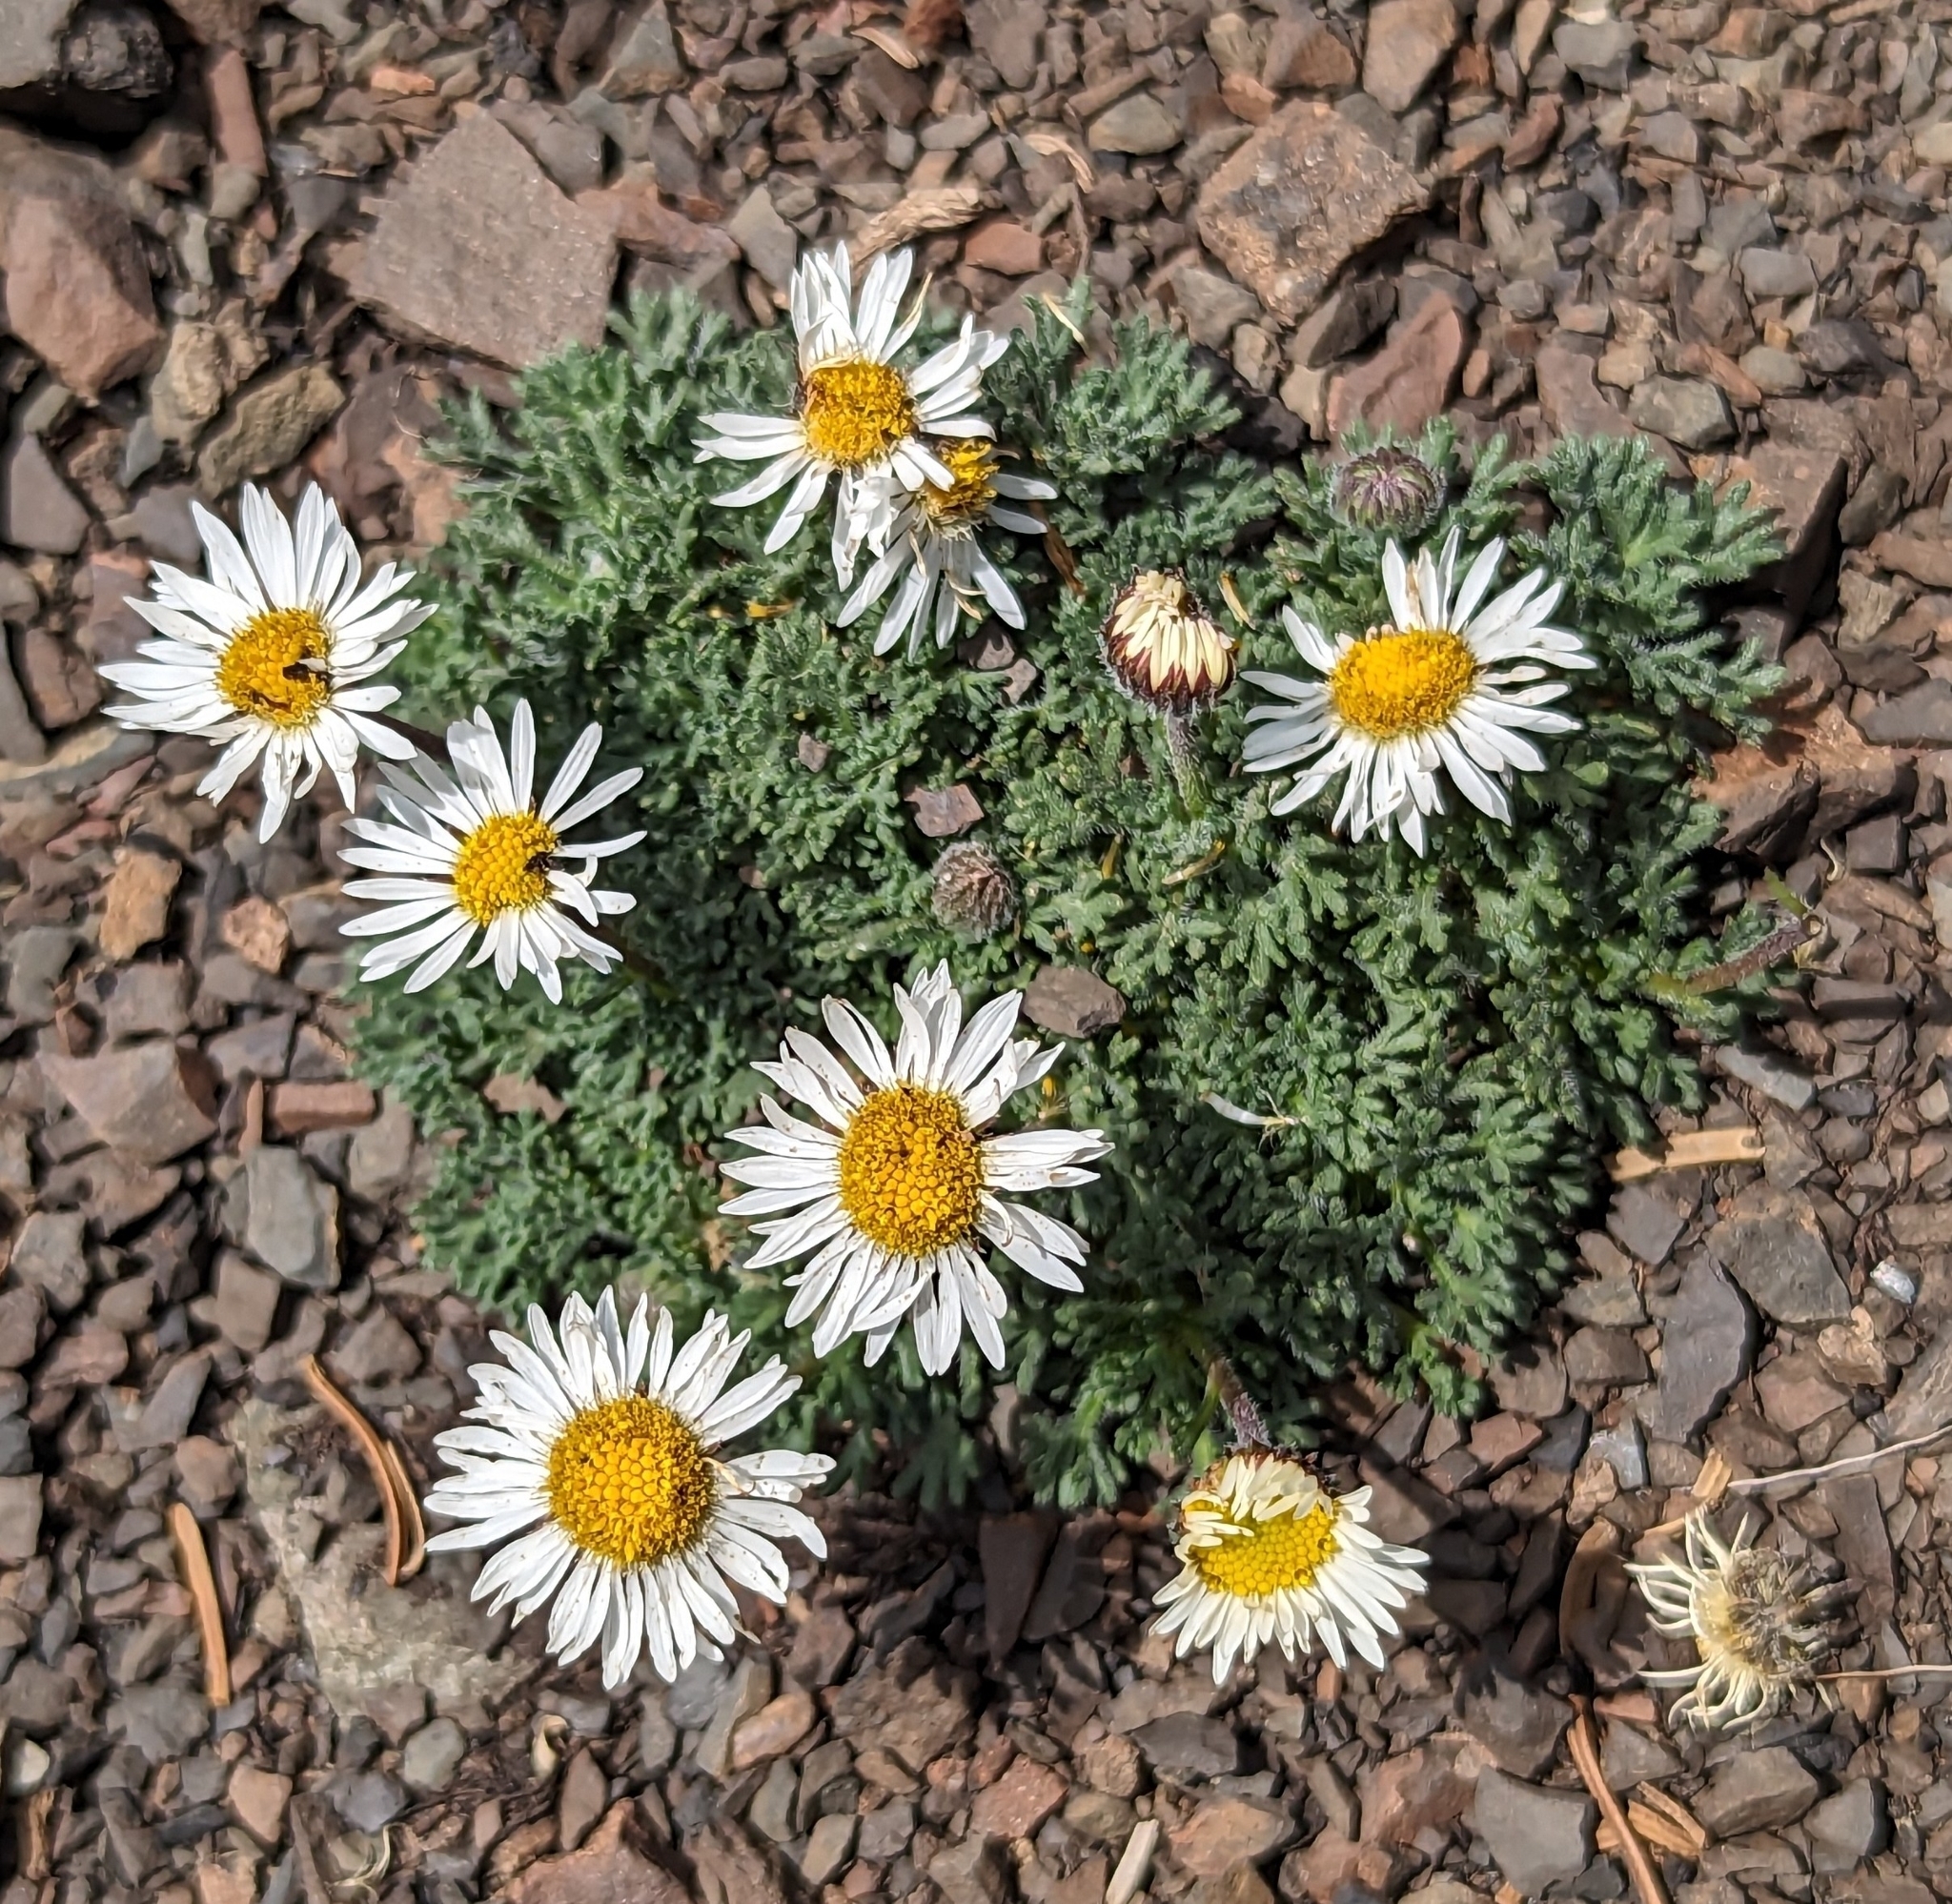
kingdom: Plantae
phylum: Tracheophyta
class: Magnoliopsida
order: Asterales
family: Asteraceae
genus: Erigeron
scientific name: Erigeron compositus
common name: Dwarf mountain fleabane
